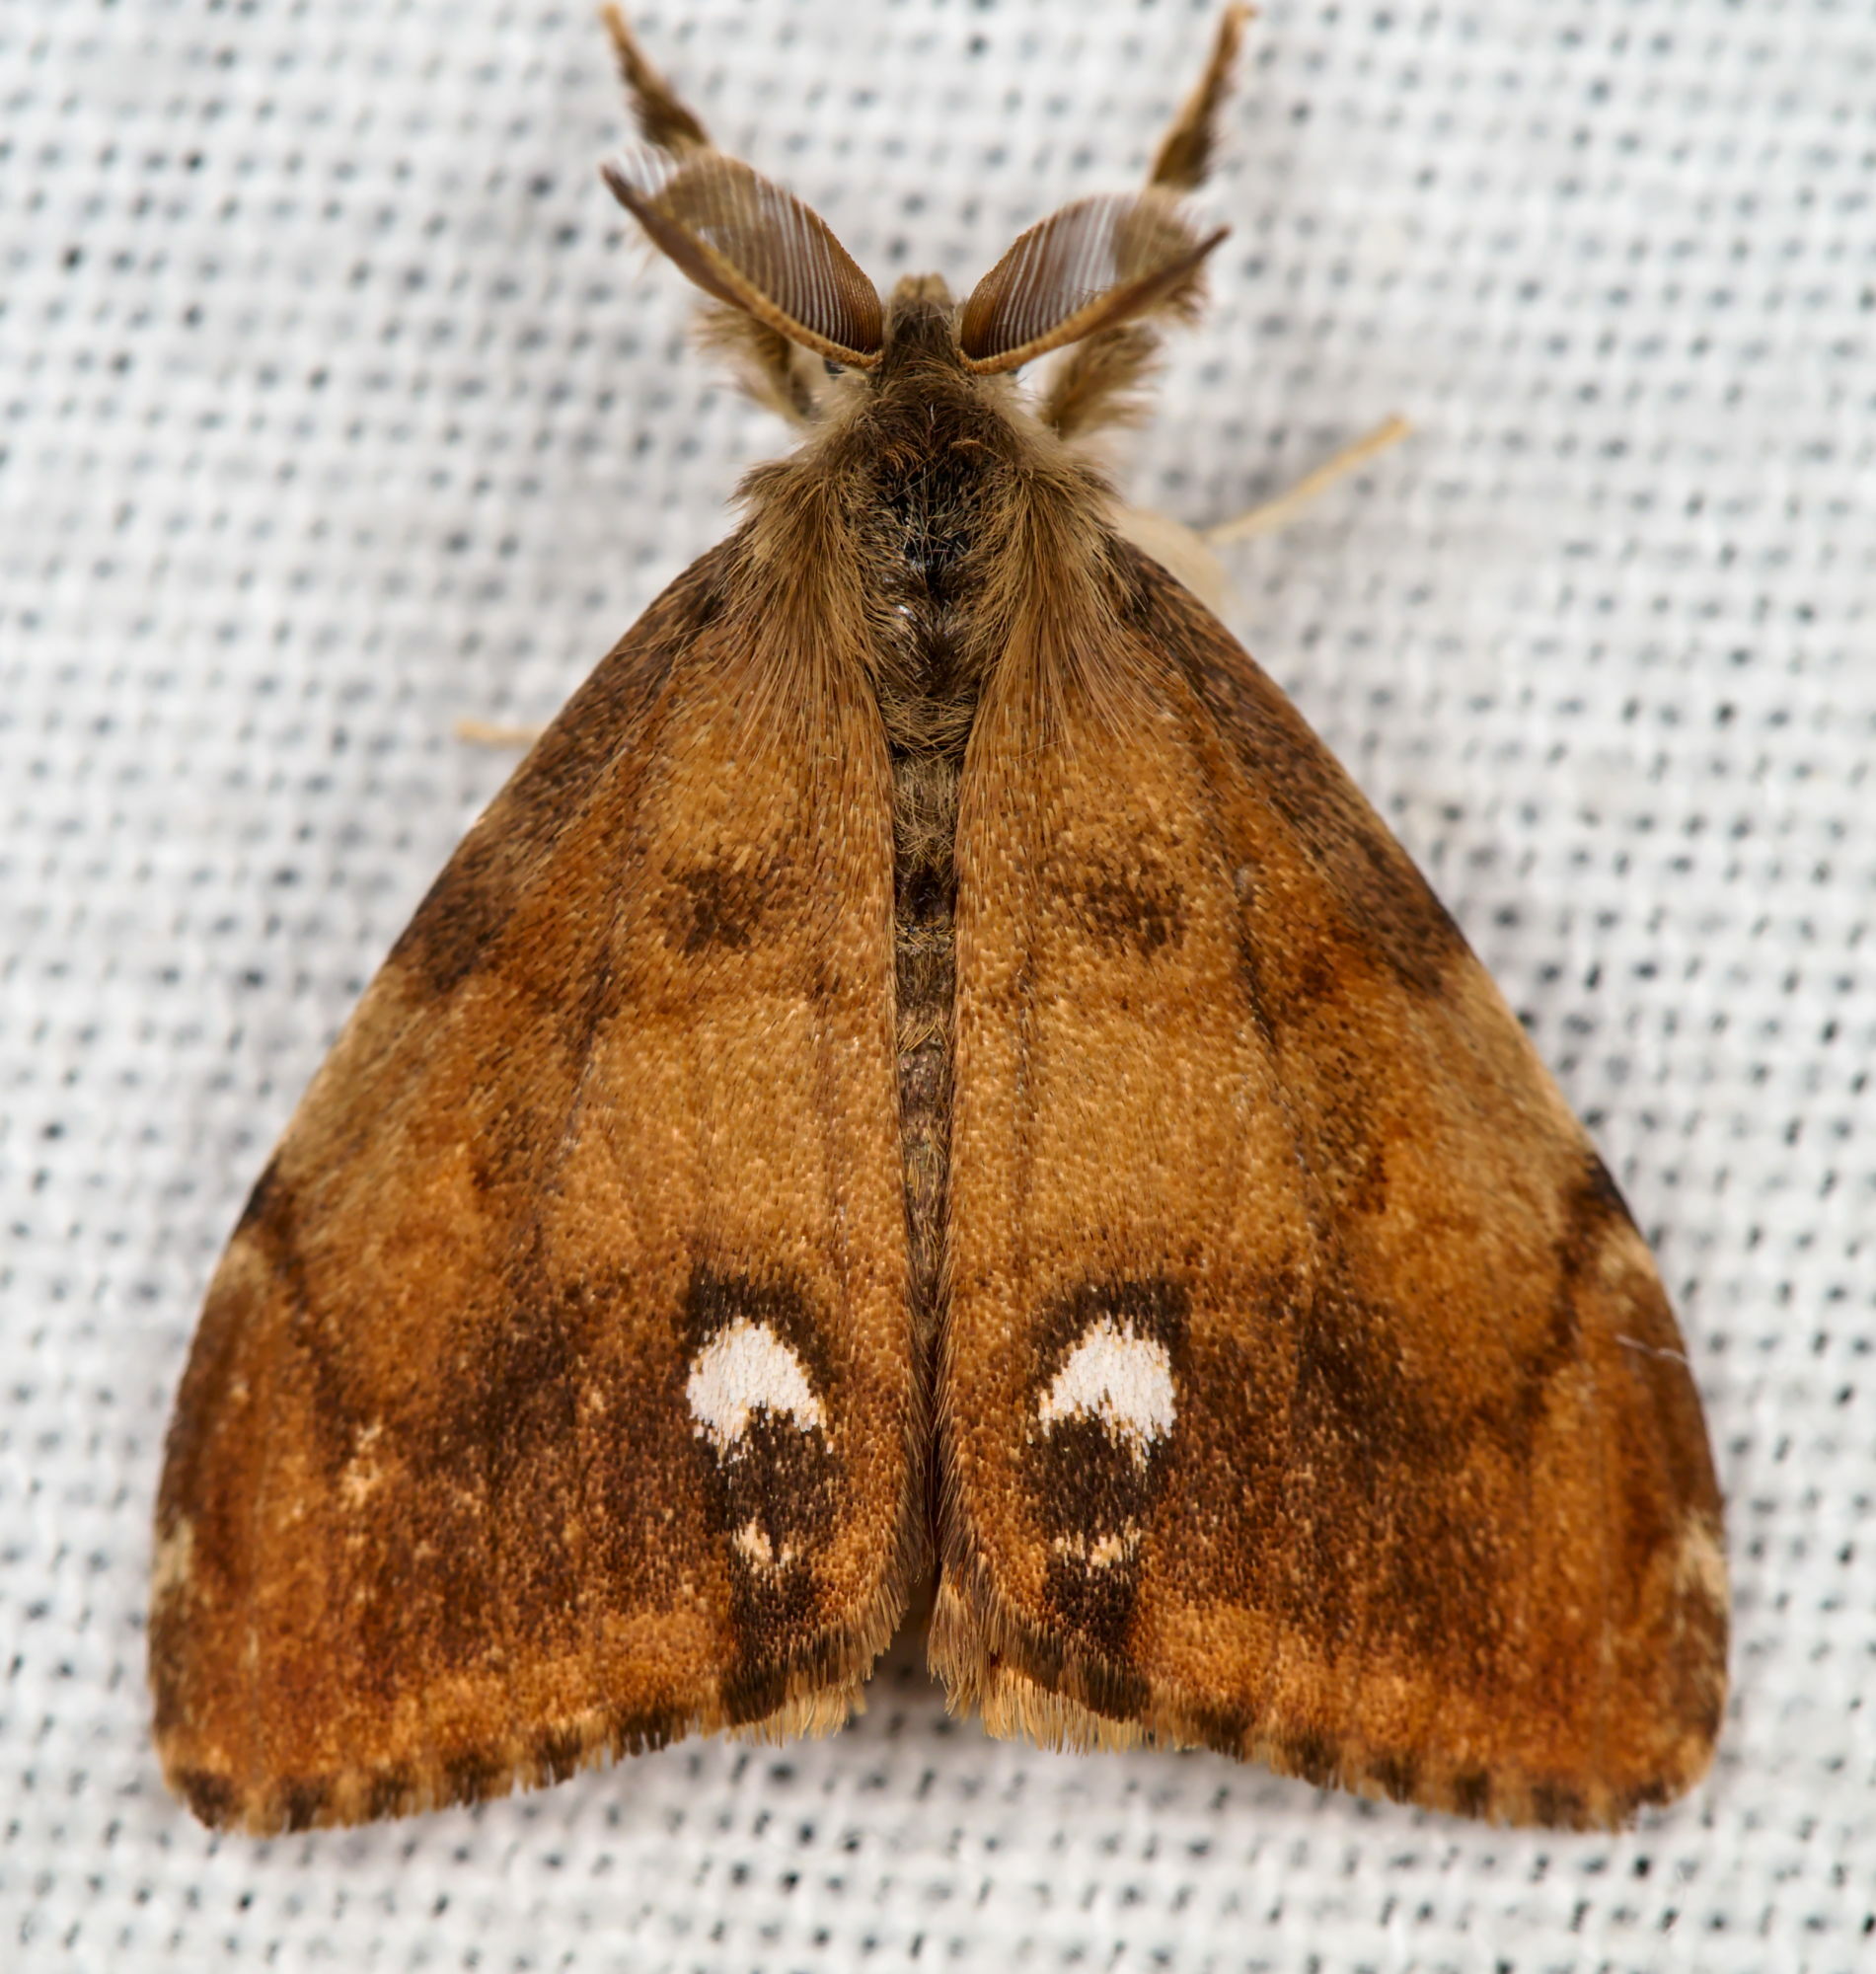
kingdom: Animalia
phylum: Arthropoda
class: Insecta
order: Lepidoptera
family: Erebidae
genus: Orgyia
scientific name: Orgyia antiqua
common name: Vapourer
